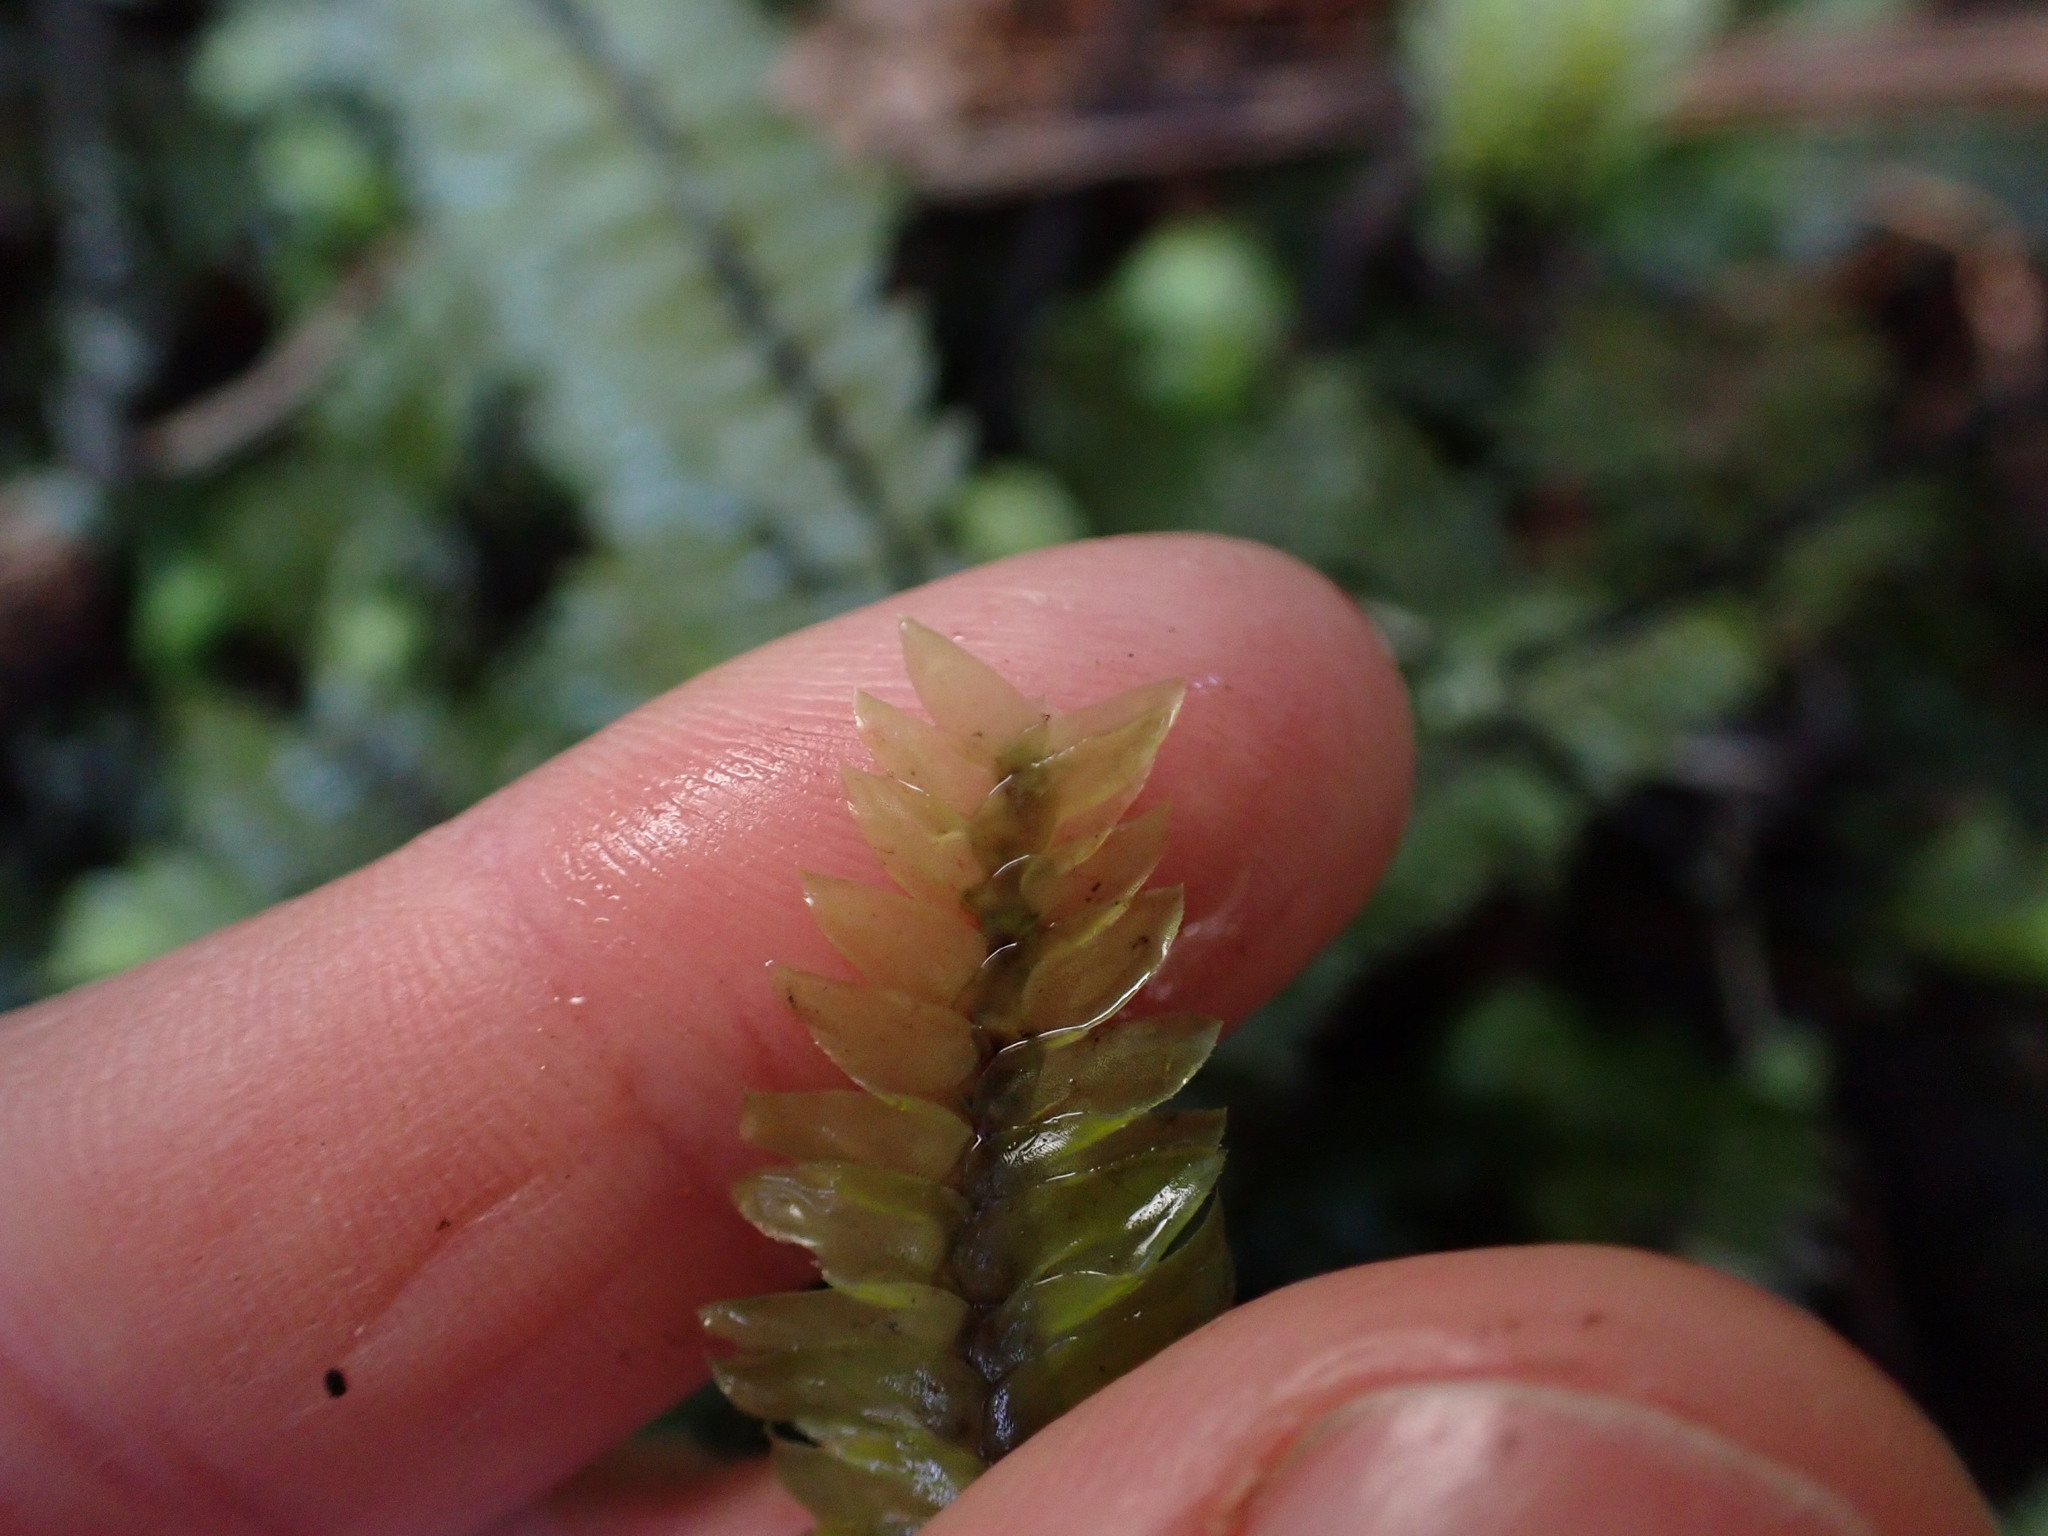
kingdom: Plantae
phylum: Bryophyta
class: Bryopsida
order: Hypopterygiales
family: Hypopterygiaceae
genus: Cyathophorum
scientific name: Cyathophorum bulbosum
